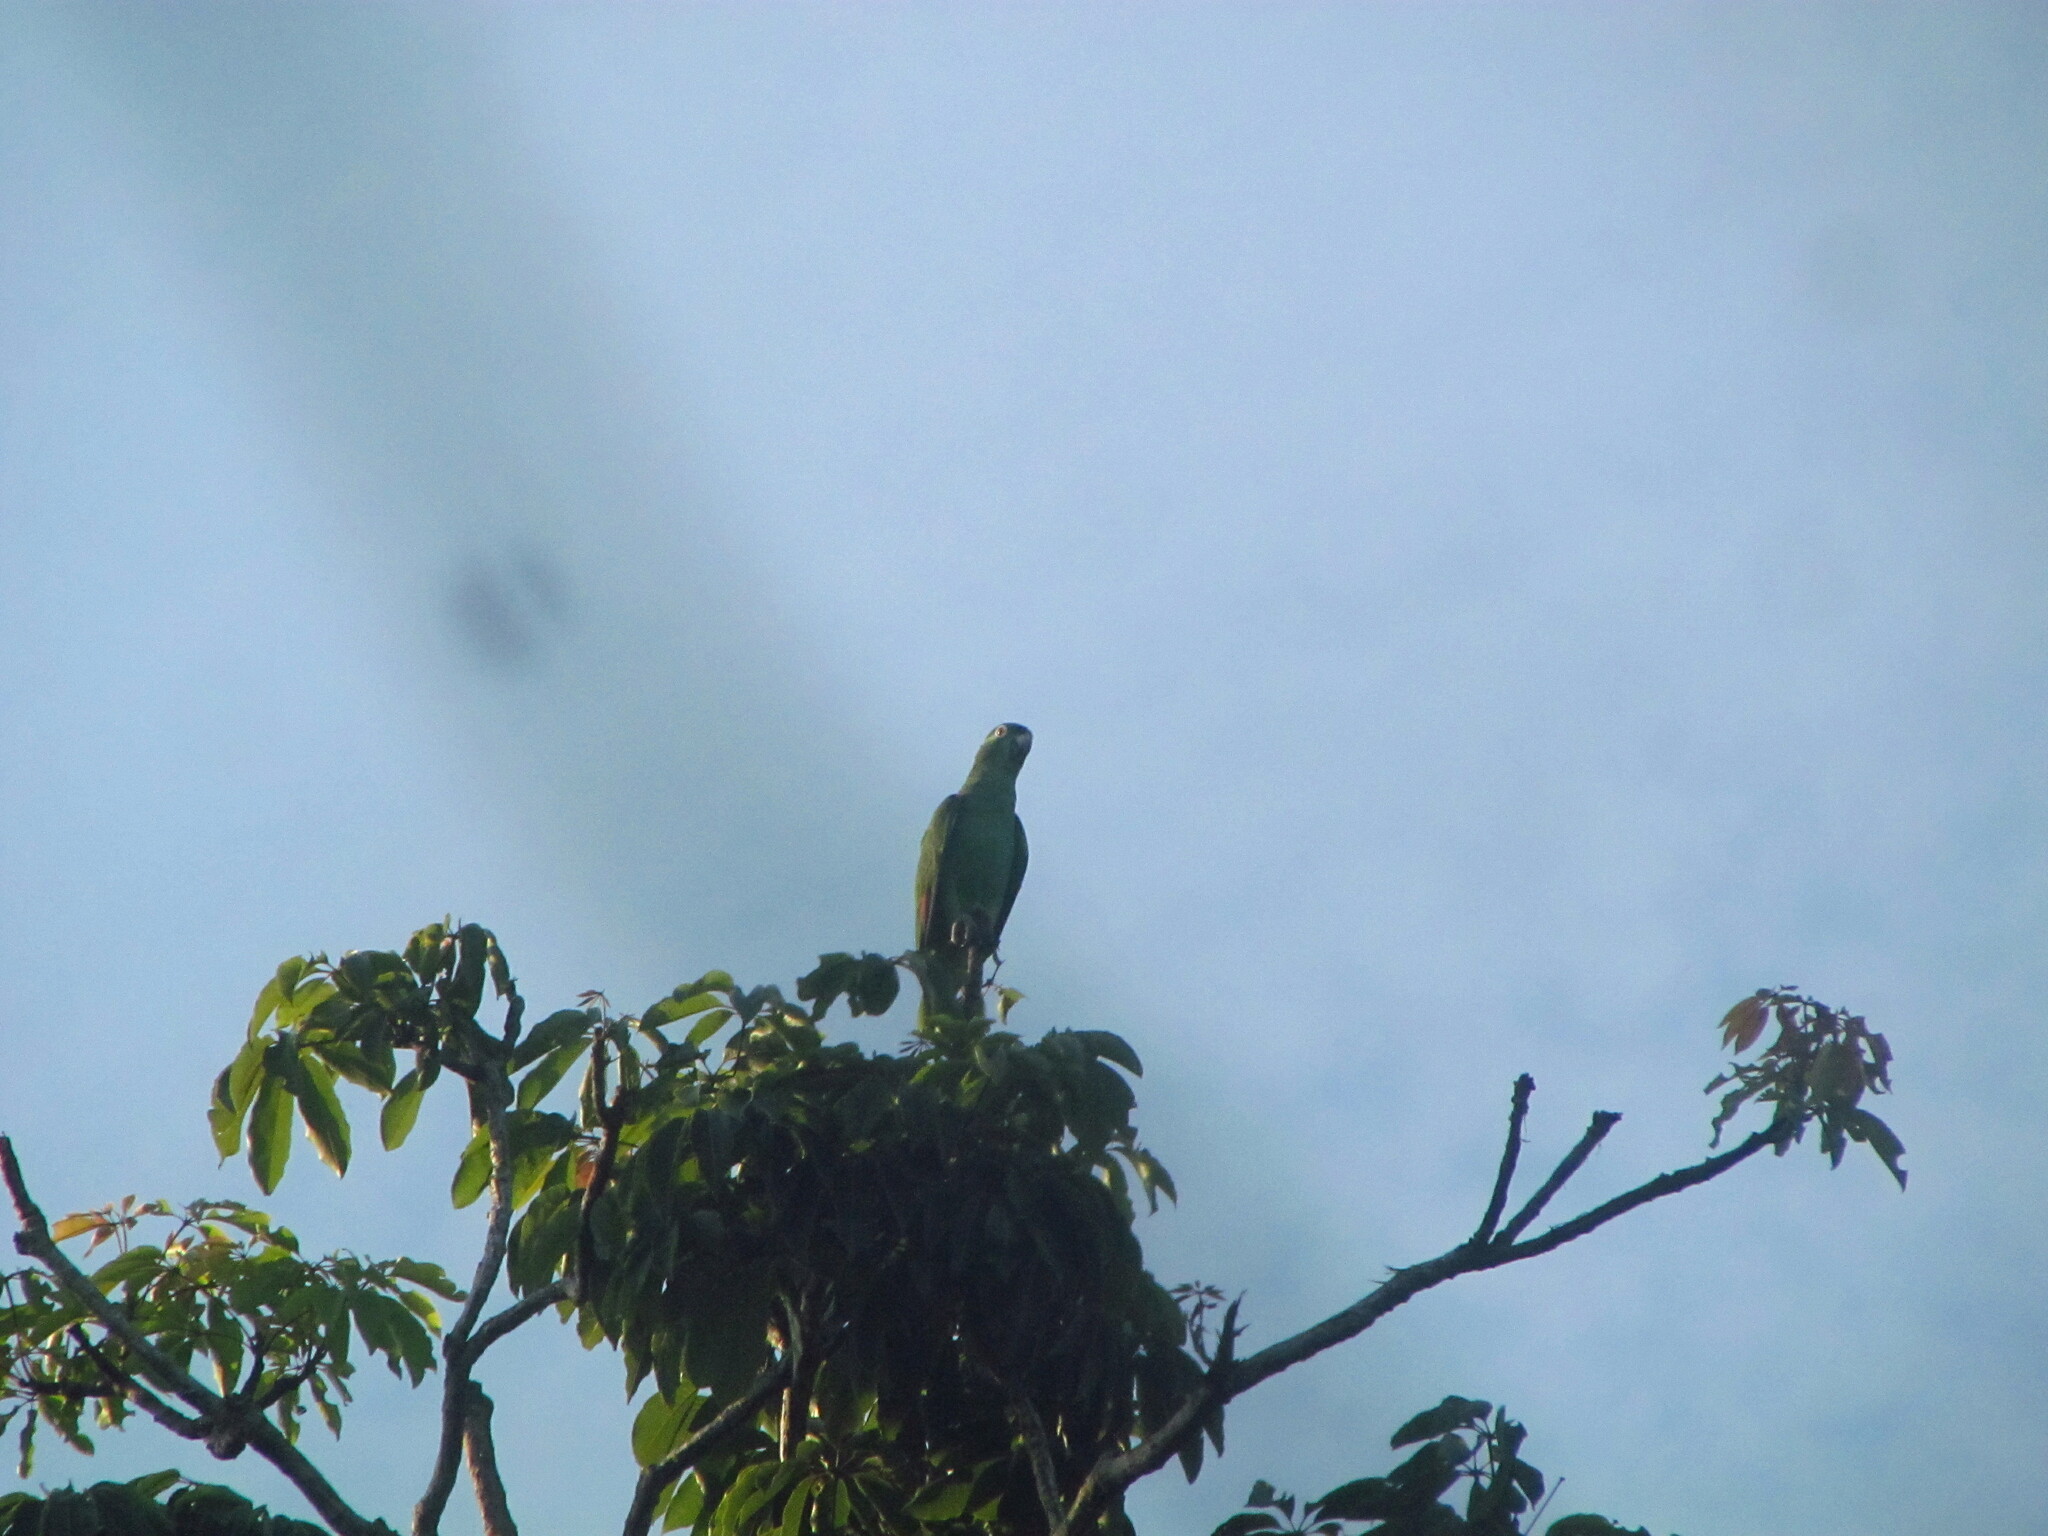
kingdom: Animalia
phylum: Chordata
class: Aves
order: Psittaciformes
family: Psittacidae
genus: Amazona
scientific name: Amazona ochrocephala
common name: Yellow-crowned amazon
